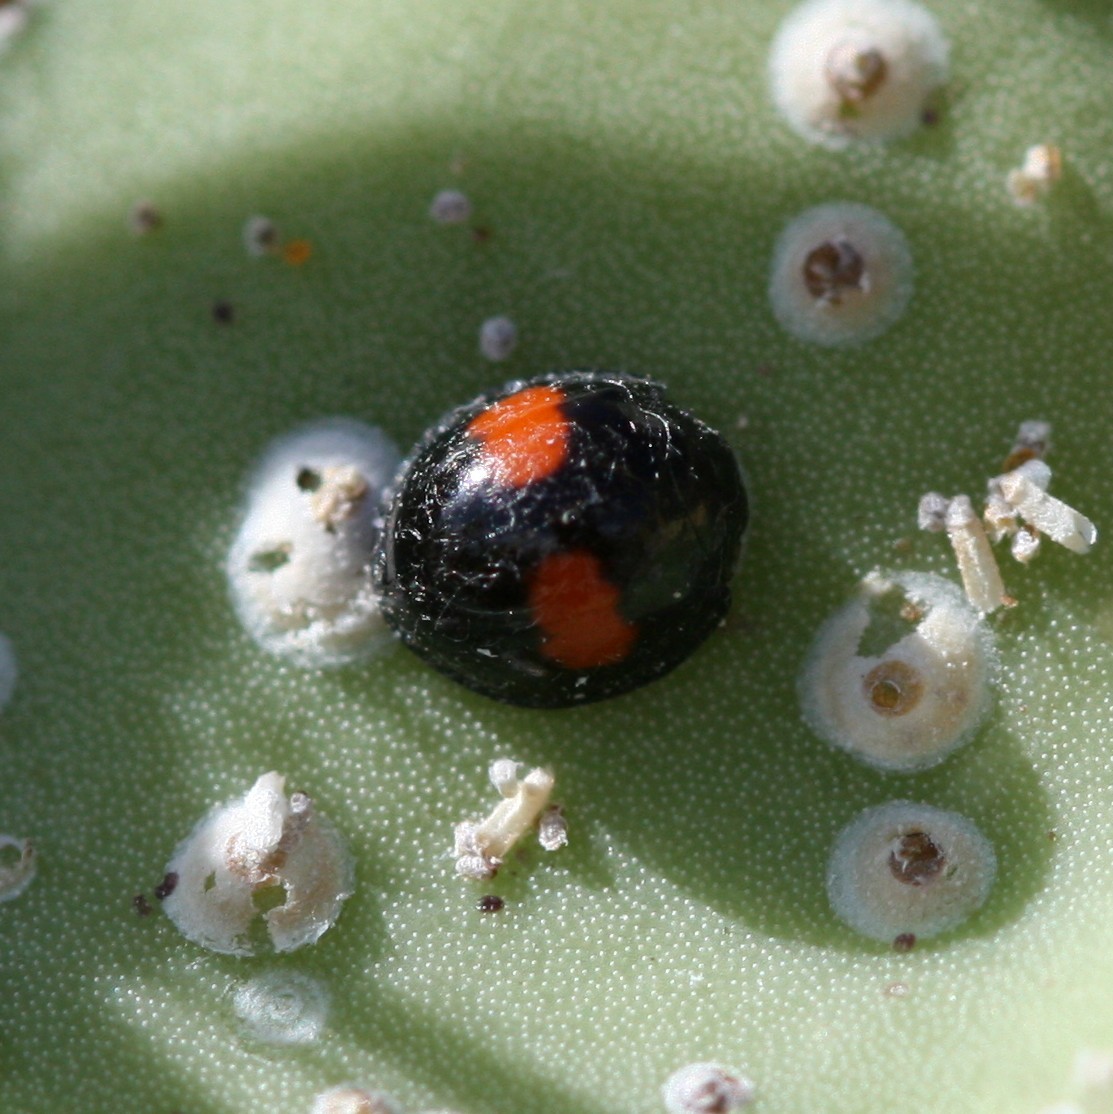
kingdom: Animalia
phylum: Arthropoda
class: Insecta
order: Coleoptera
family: Coccinellidae
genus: Chilocorus
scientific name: Chilocorus canariensis
